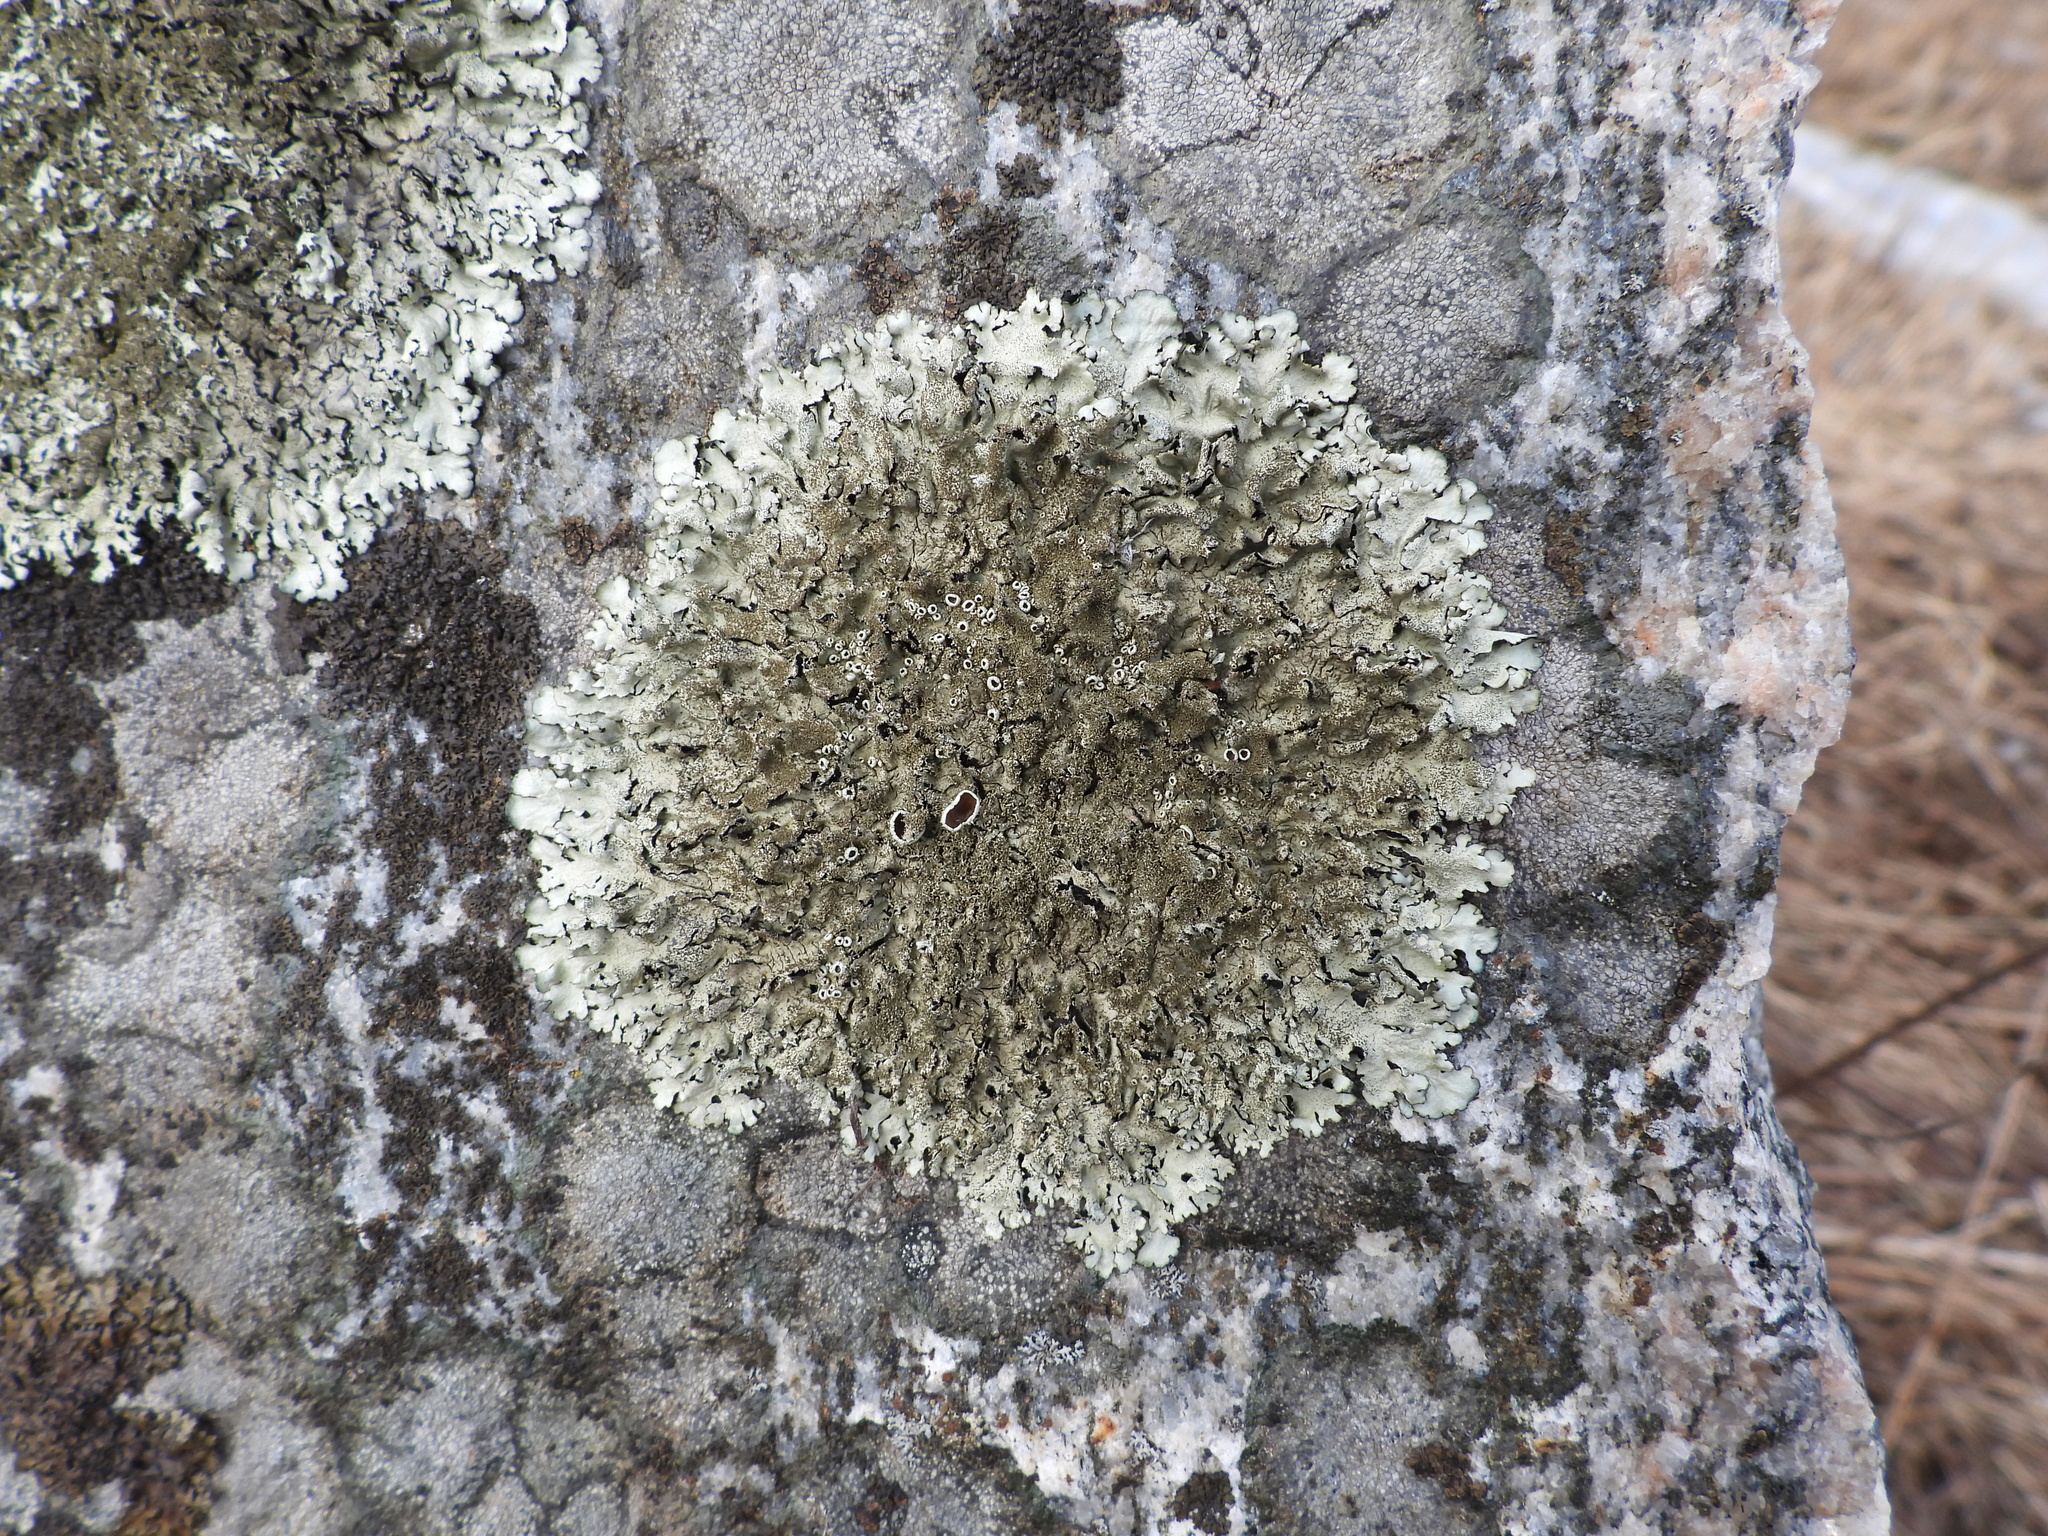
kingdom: Fungi
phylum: Ascomycota
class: Lecanoromycetes
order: Lecanorales
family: Parmeliaceae
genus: Xanthoparmelia
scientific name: Xanthoparmelia conspersa
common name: Peppered rock shield
